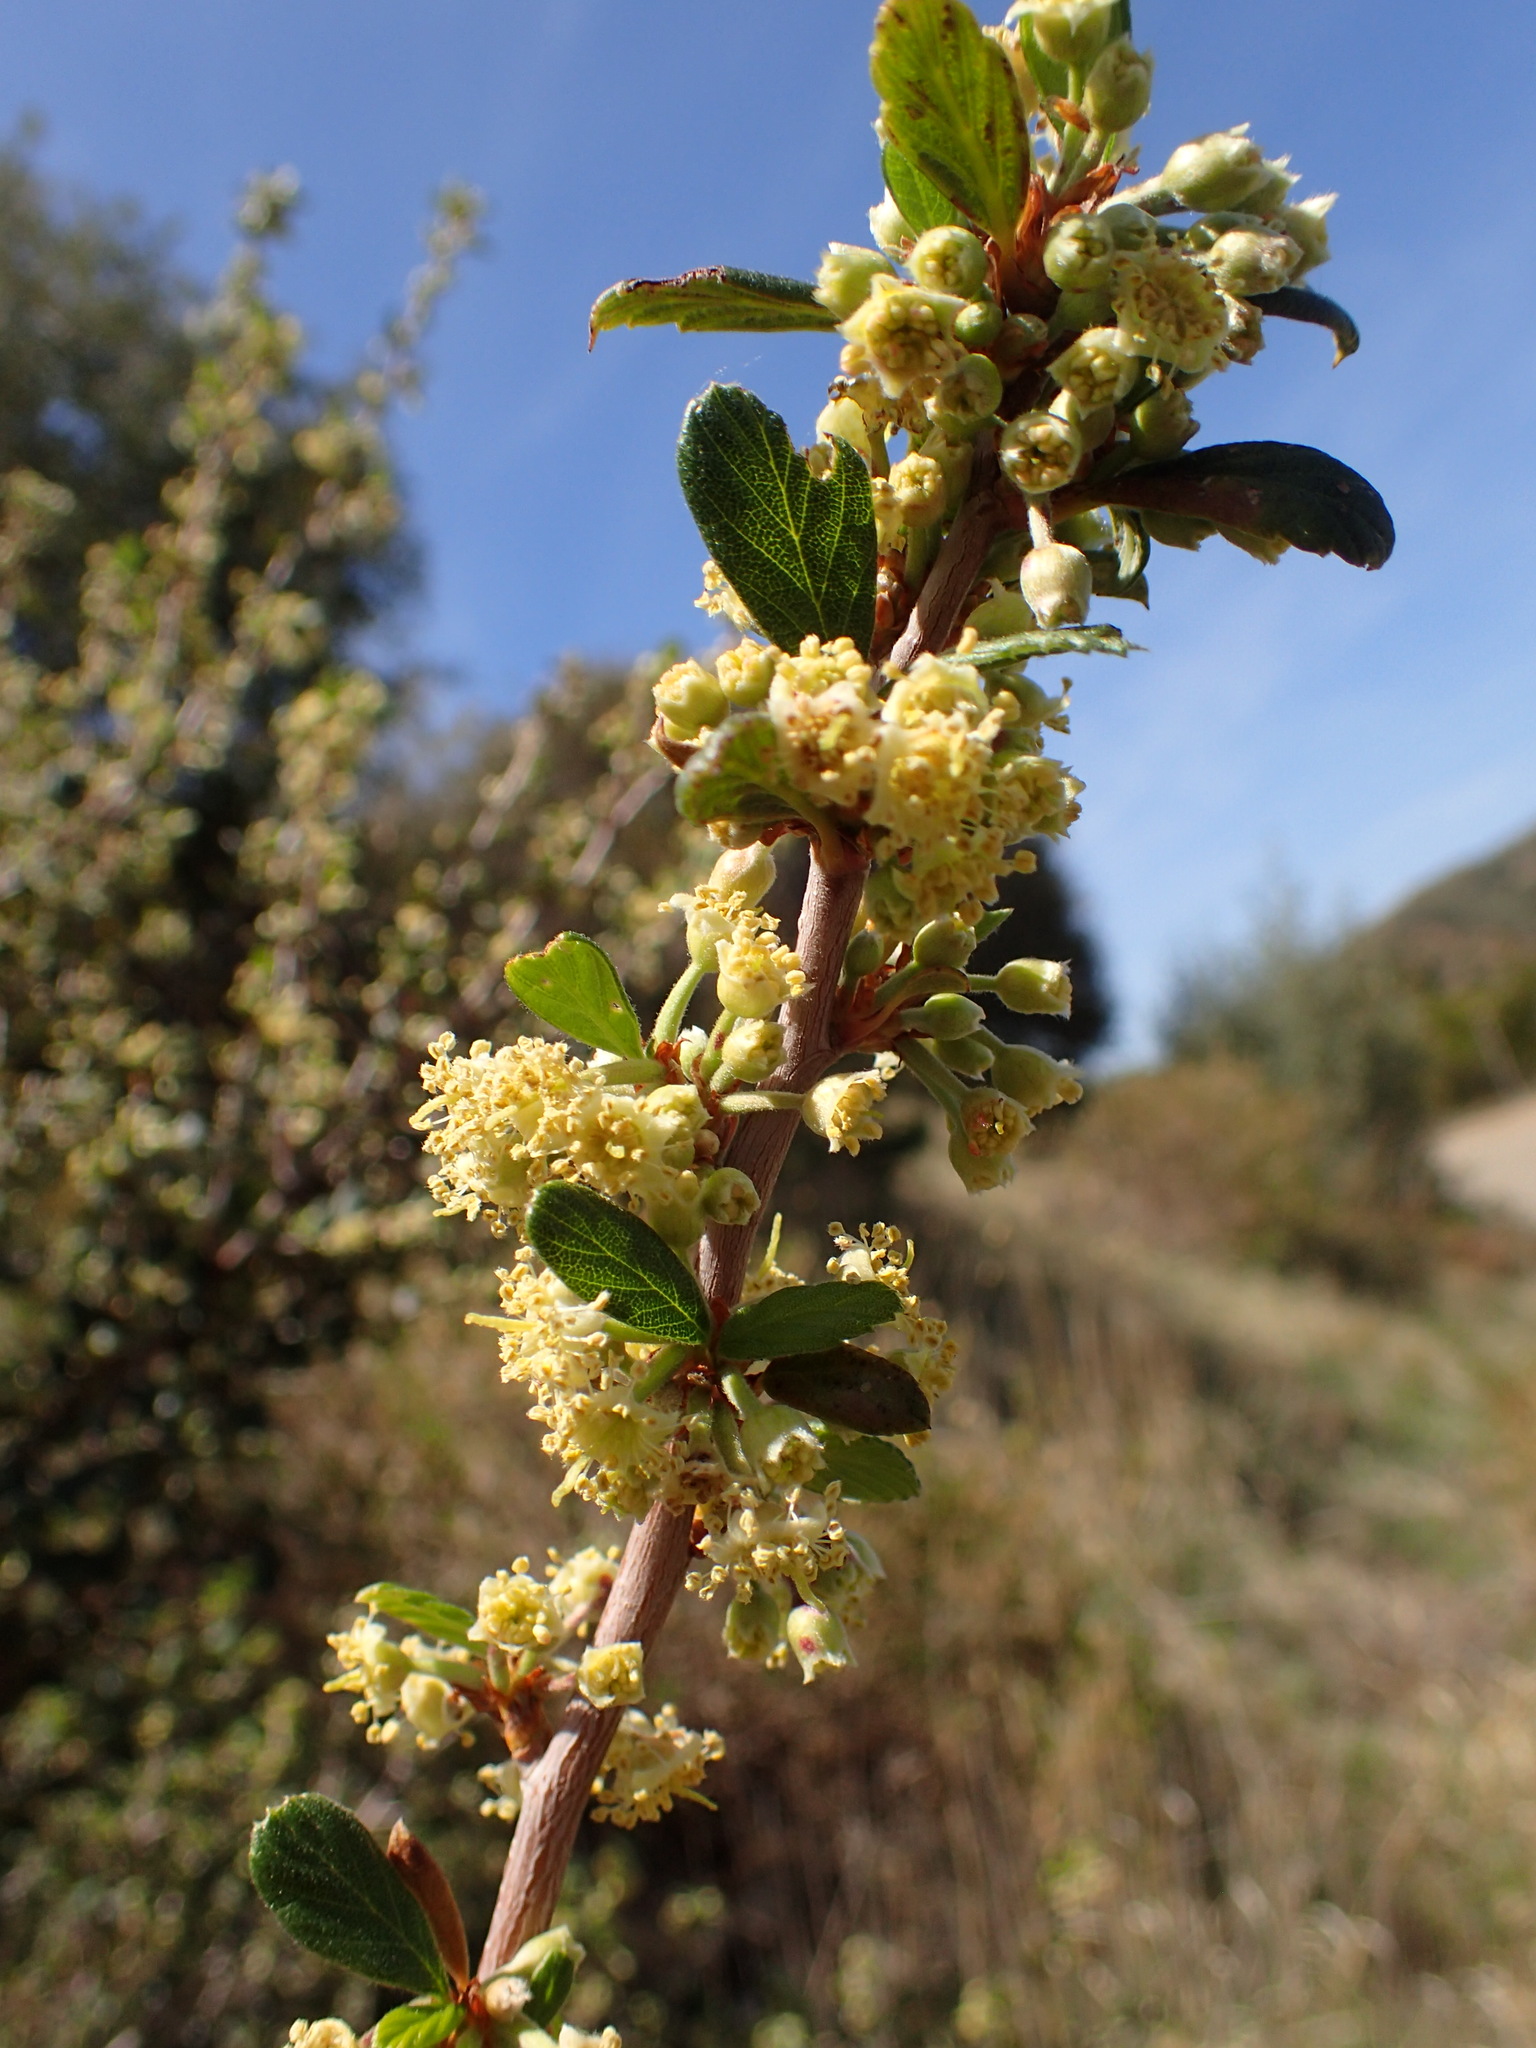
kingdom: Plantae
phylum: Tracheophyta
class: Magnoliopsida
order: Rosales
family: Rosaceae
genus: Cercocarpus
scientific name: Cercocarpus betuloides
